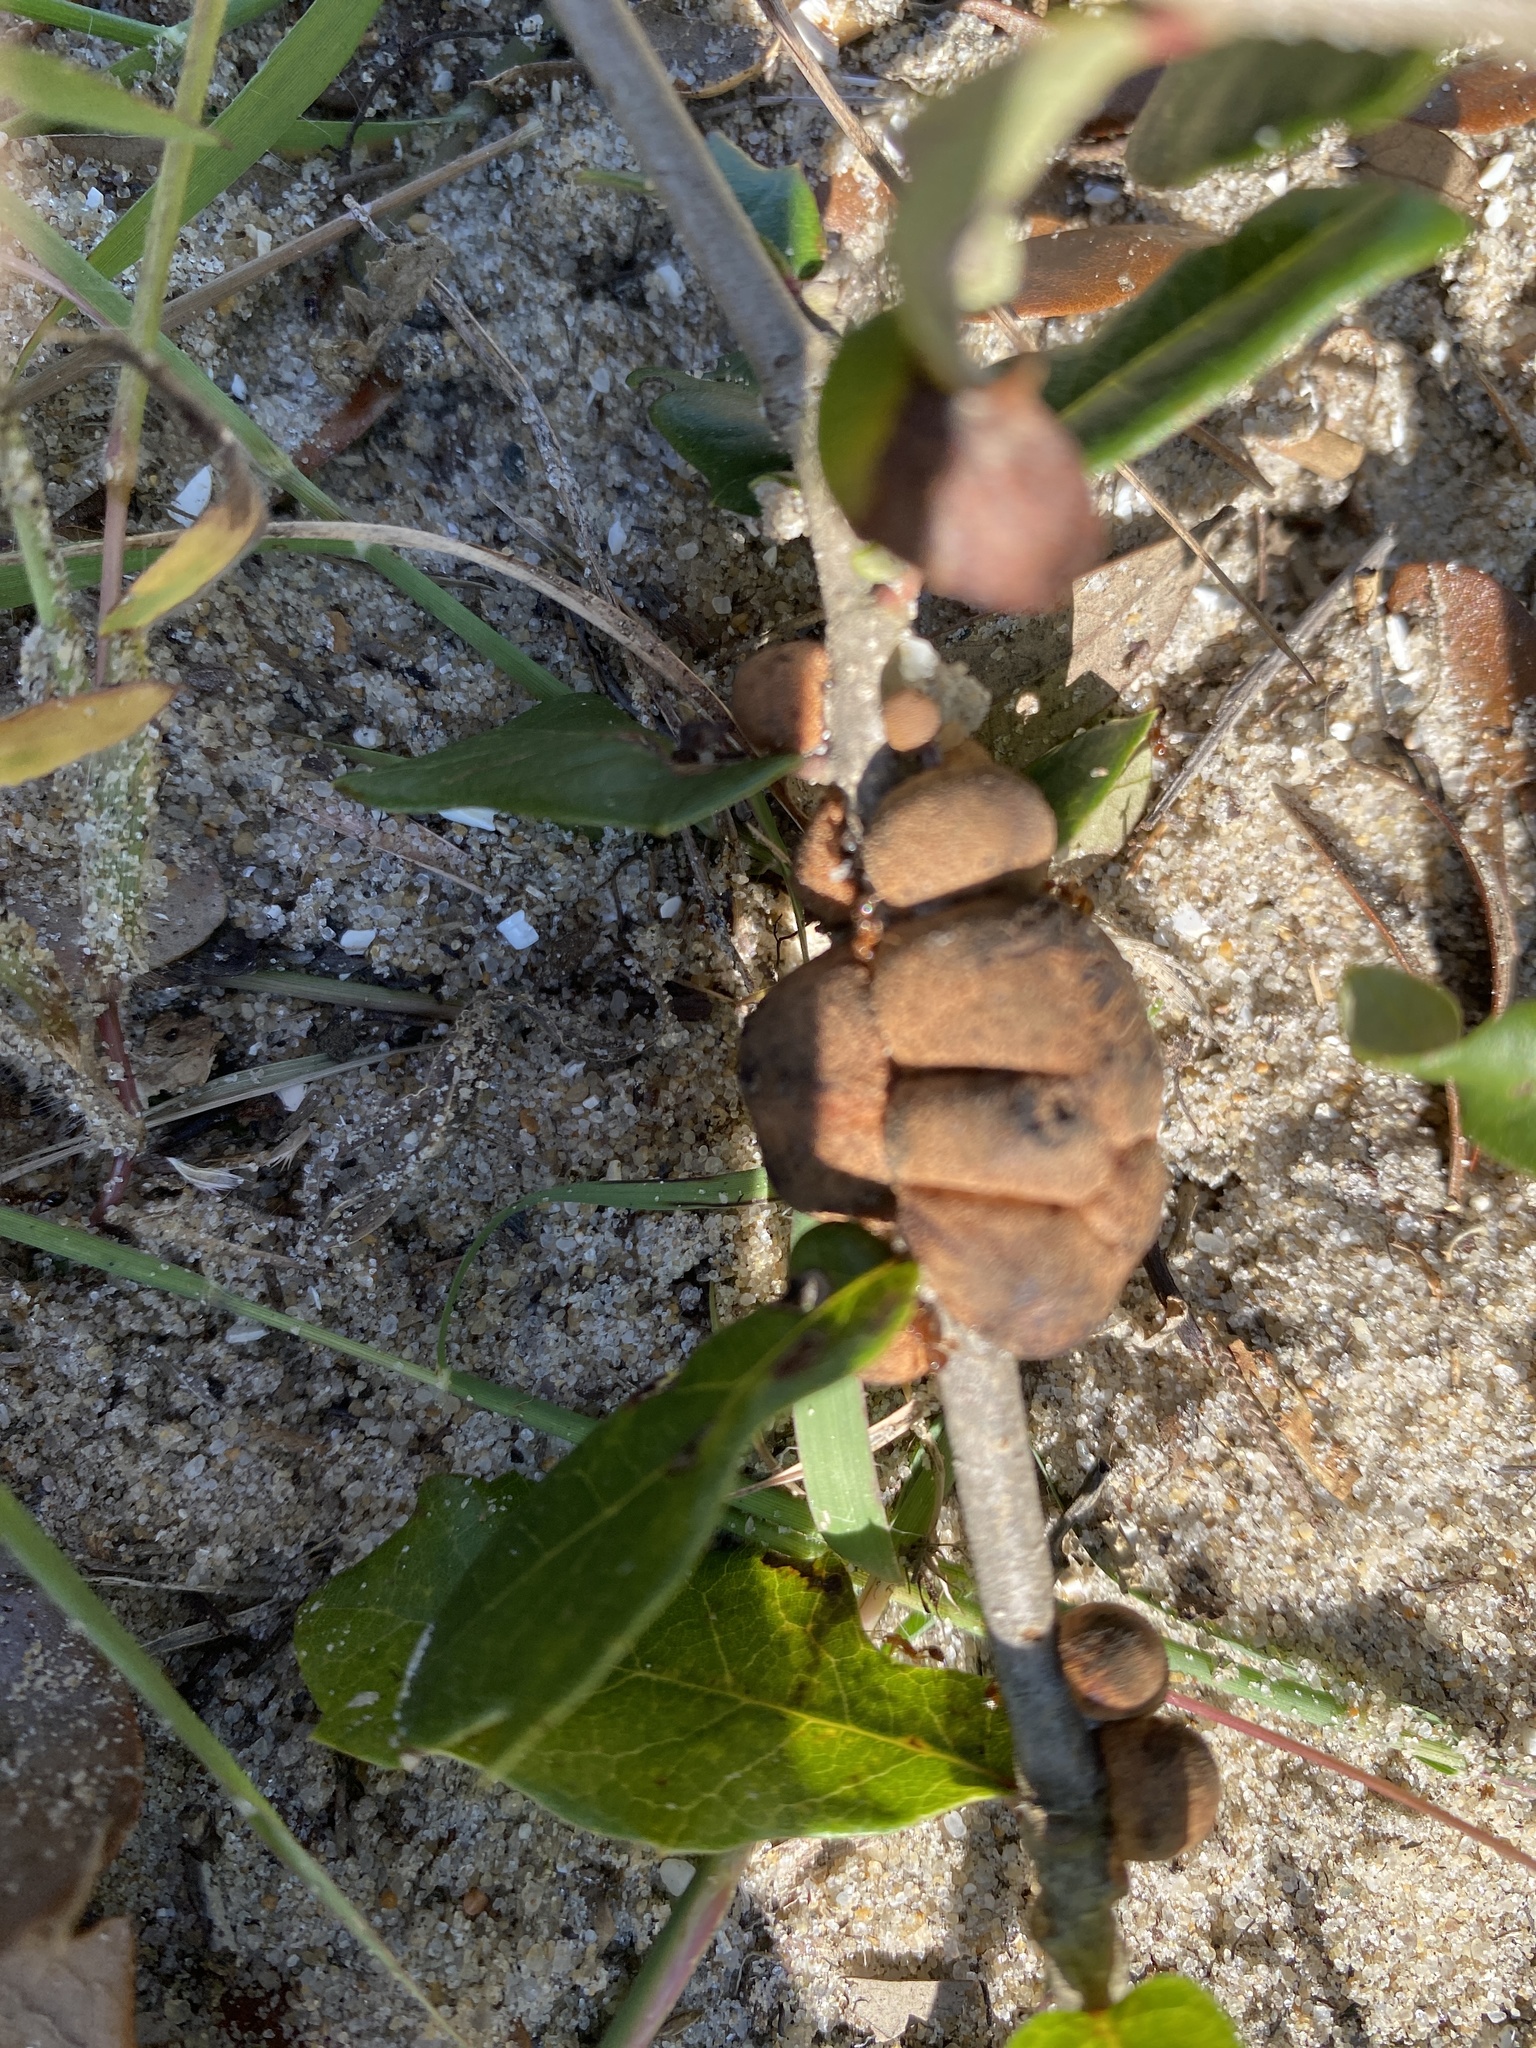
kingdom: Animalia
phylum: Arthropoda
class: Insecta
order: Hymenoptera
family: Cynipidae
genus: Disholcaspis
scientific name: Disholcaspis
